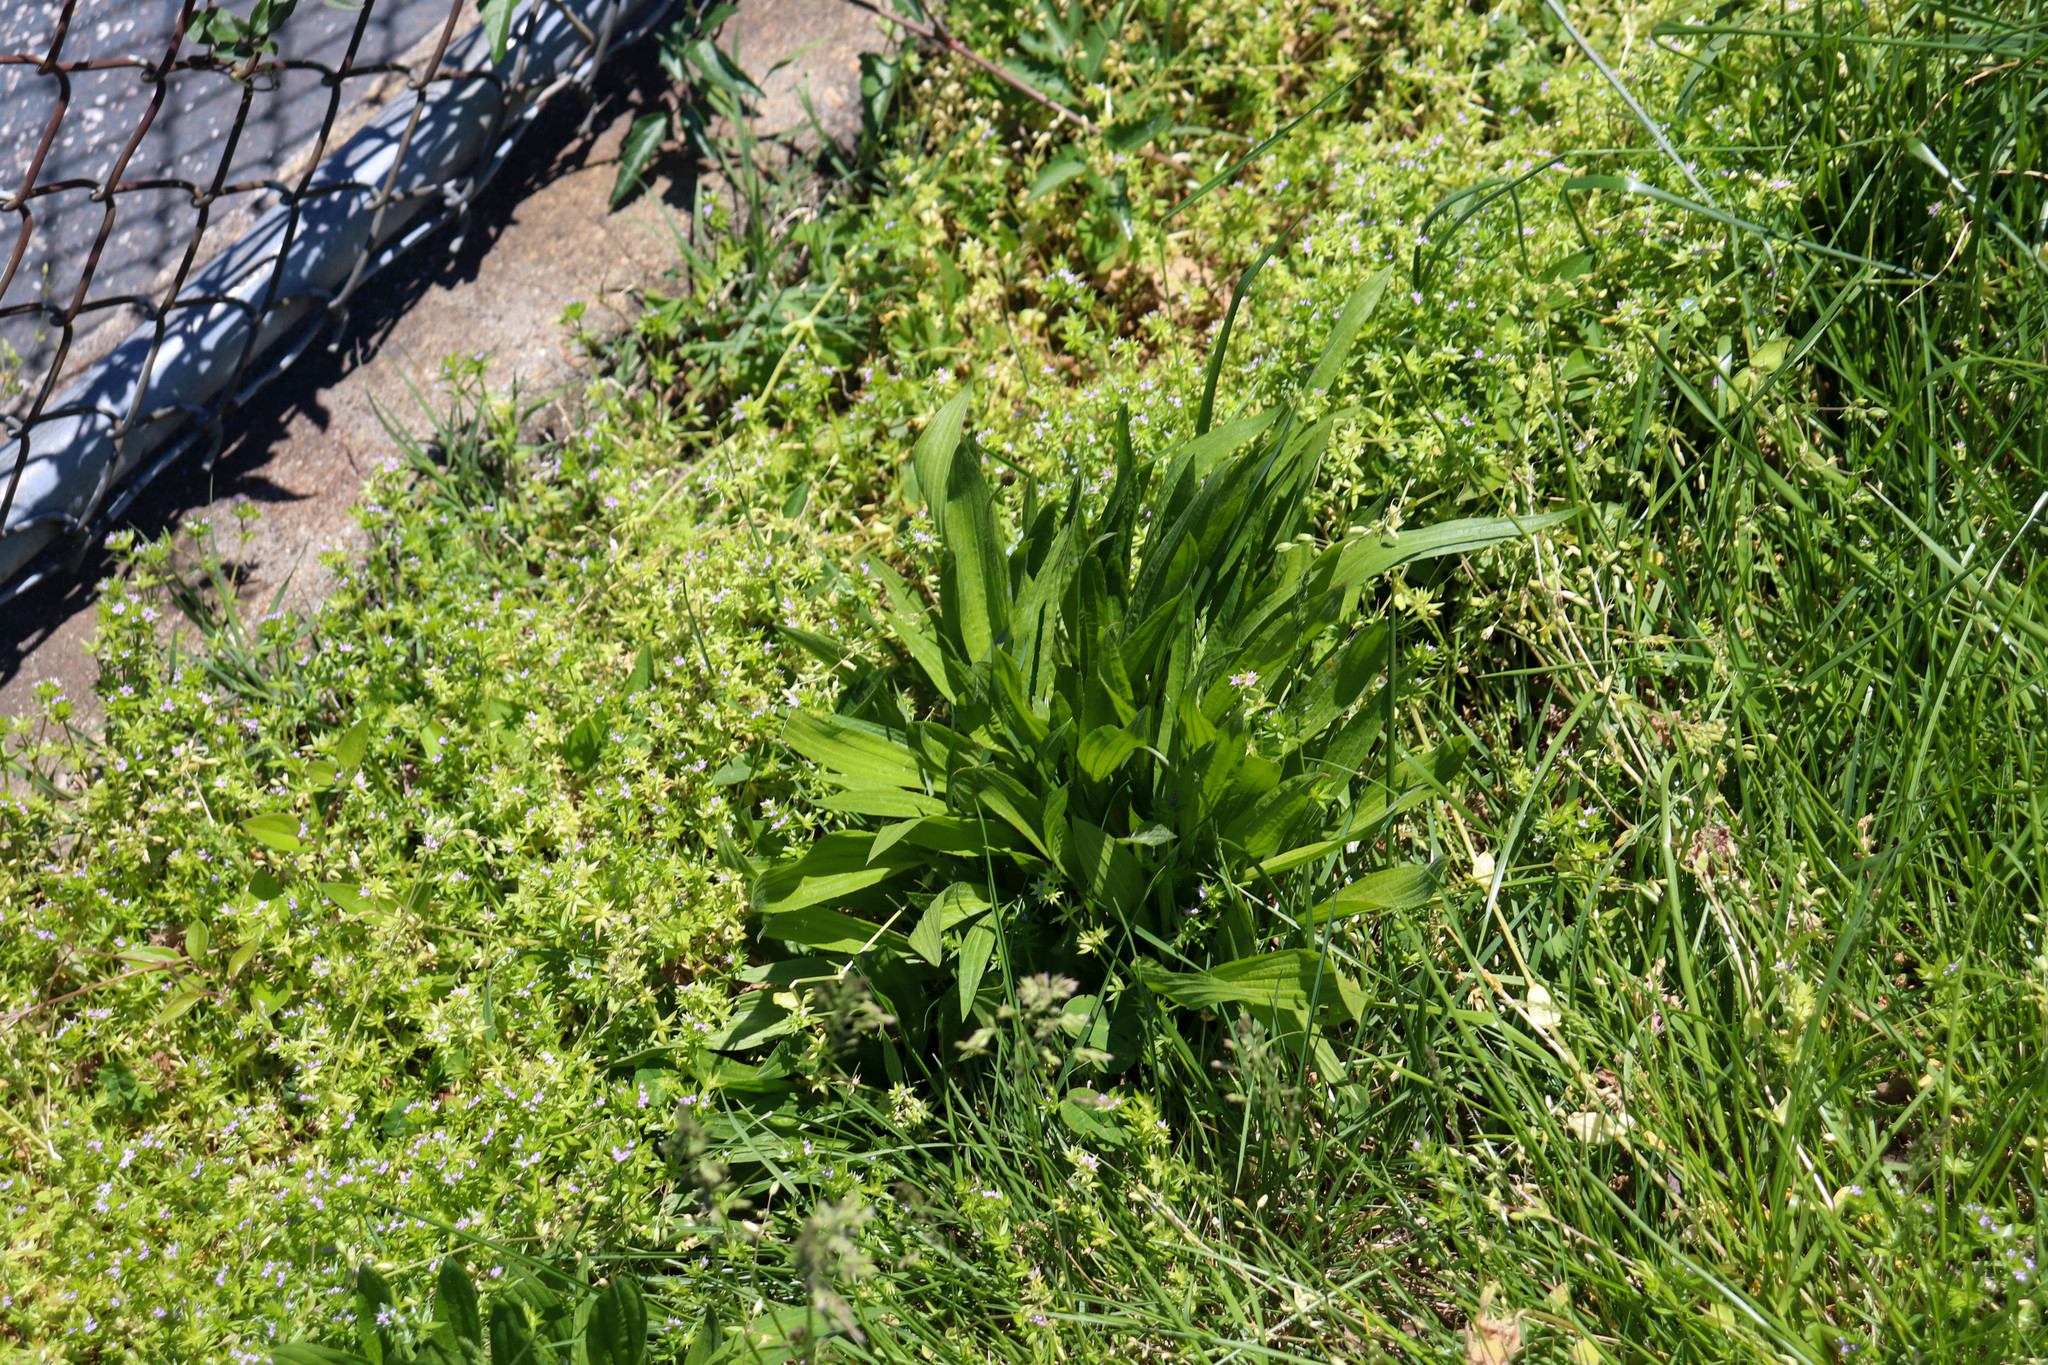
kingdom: Plantae
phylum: Tracheophyta
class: Magnoliopsida
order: Lamiales
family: Plantaginaceae
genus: Plantago
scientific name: Plantago lanceolata
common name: Ribwort plantain
